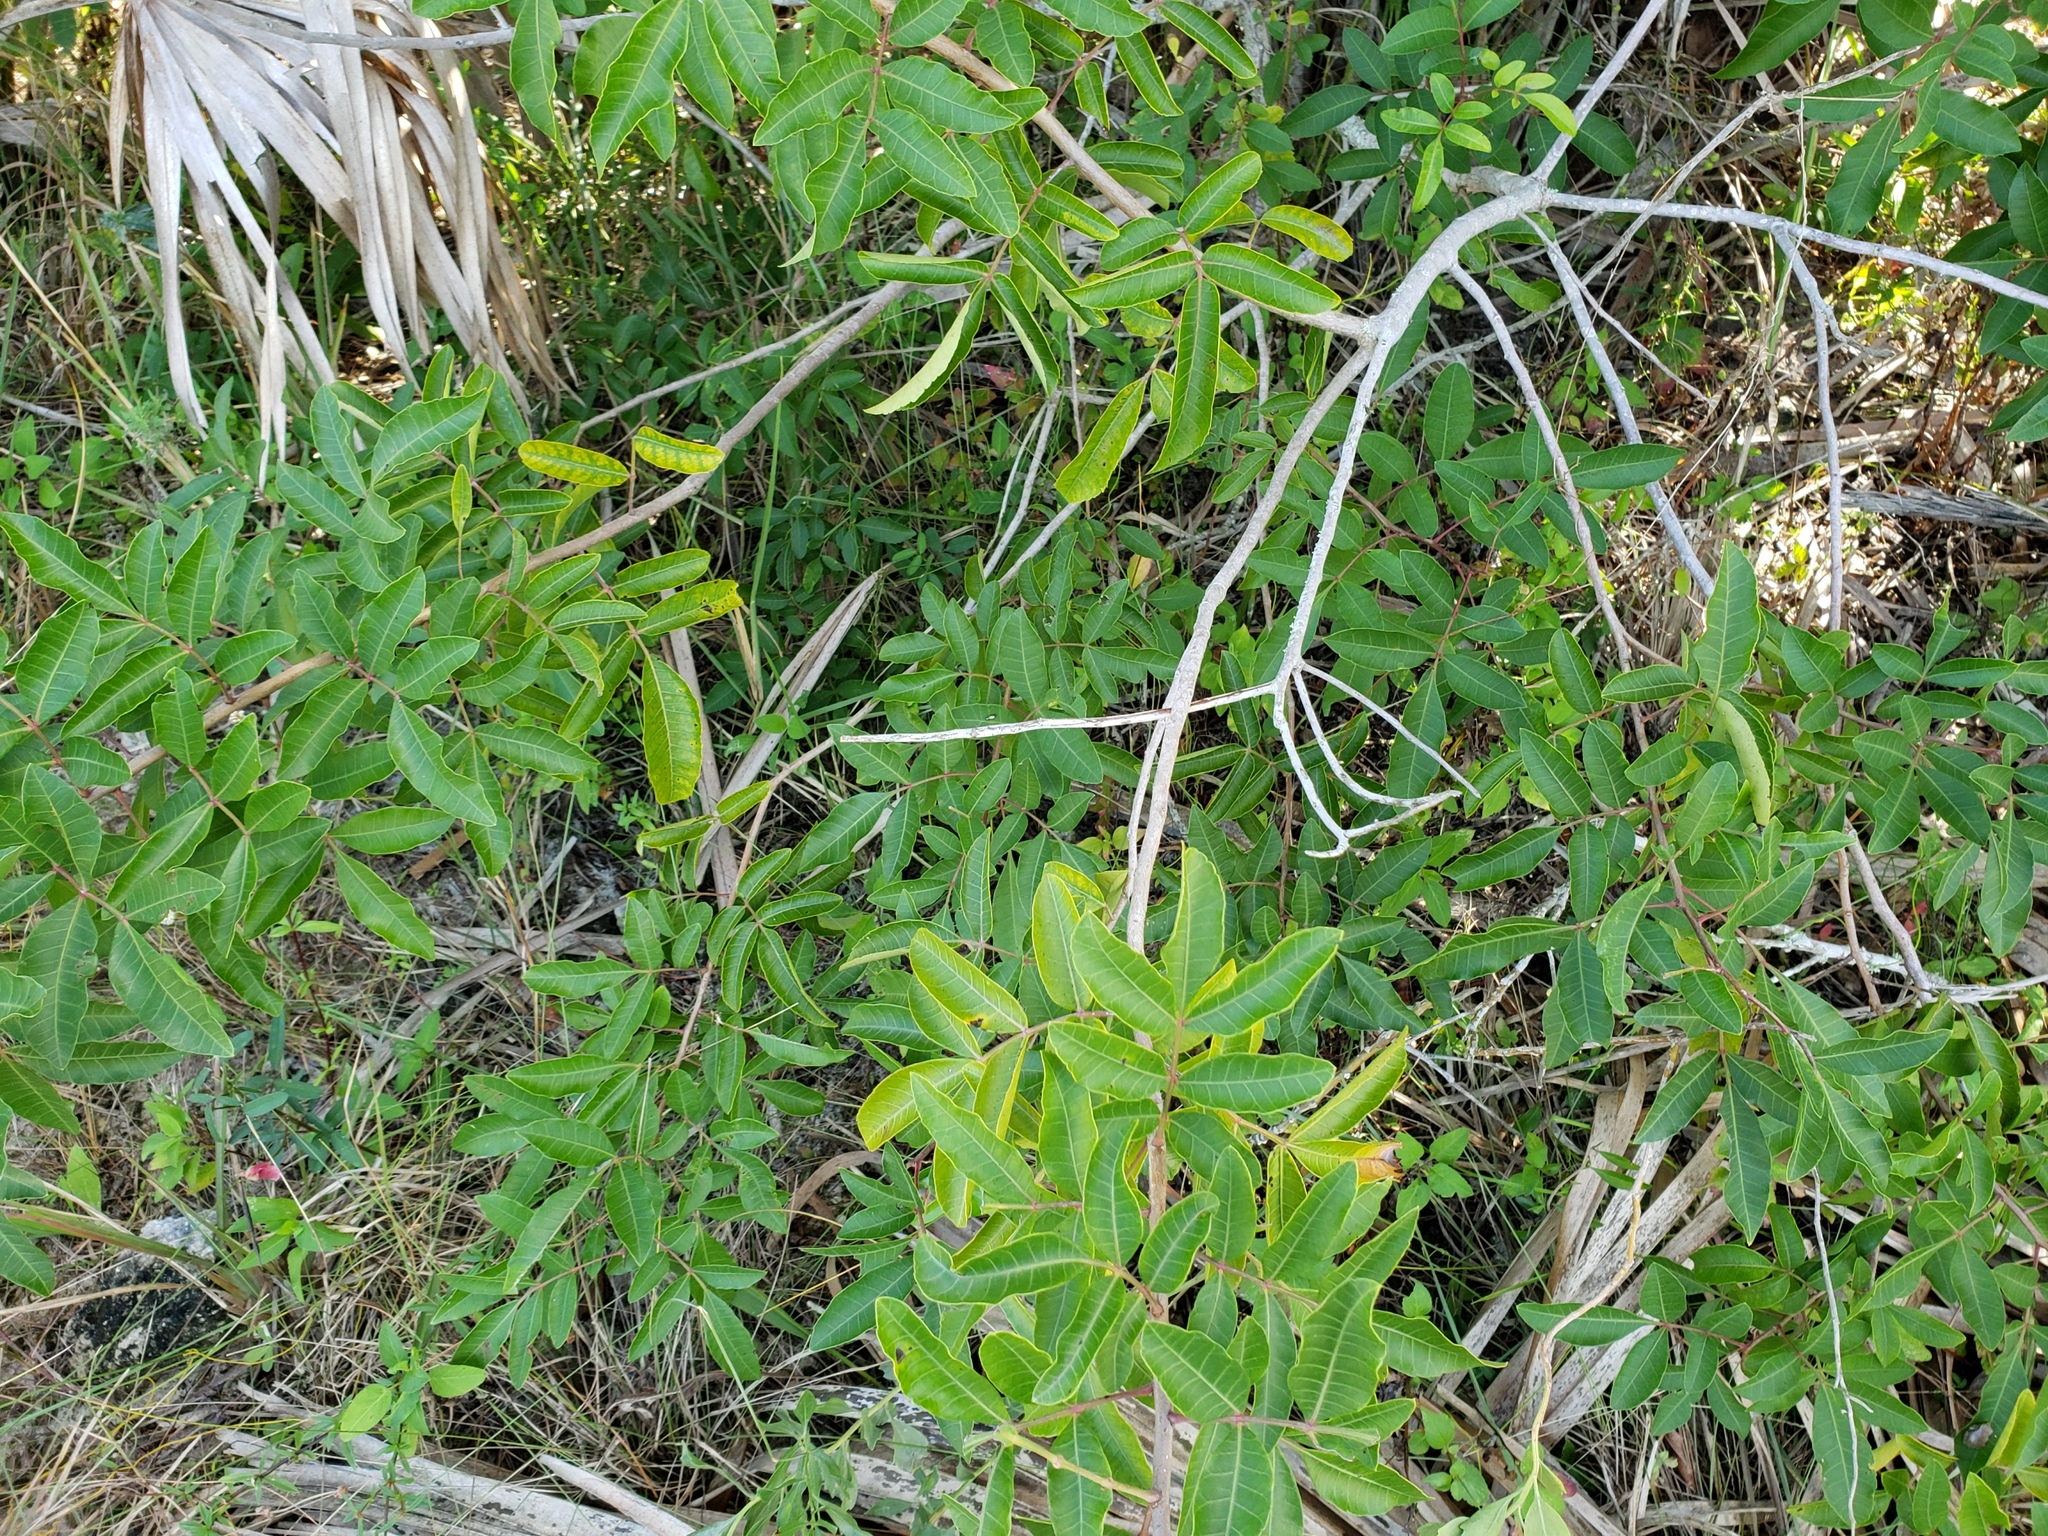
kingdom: Plantae
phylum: Tracheophyta
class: Magnoliopsida
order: Sapindales
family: Anacardiaceae
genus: Schinus
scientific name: Schinus terebinthifolia
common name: Brazilian peppertree
